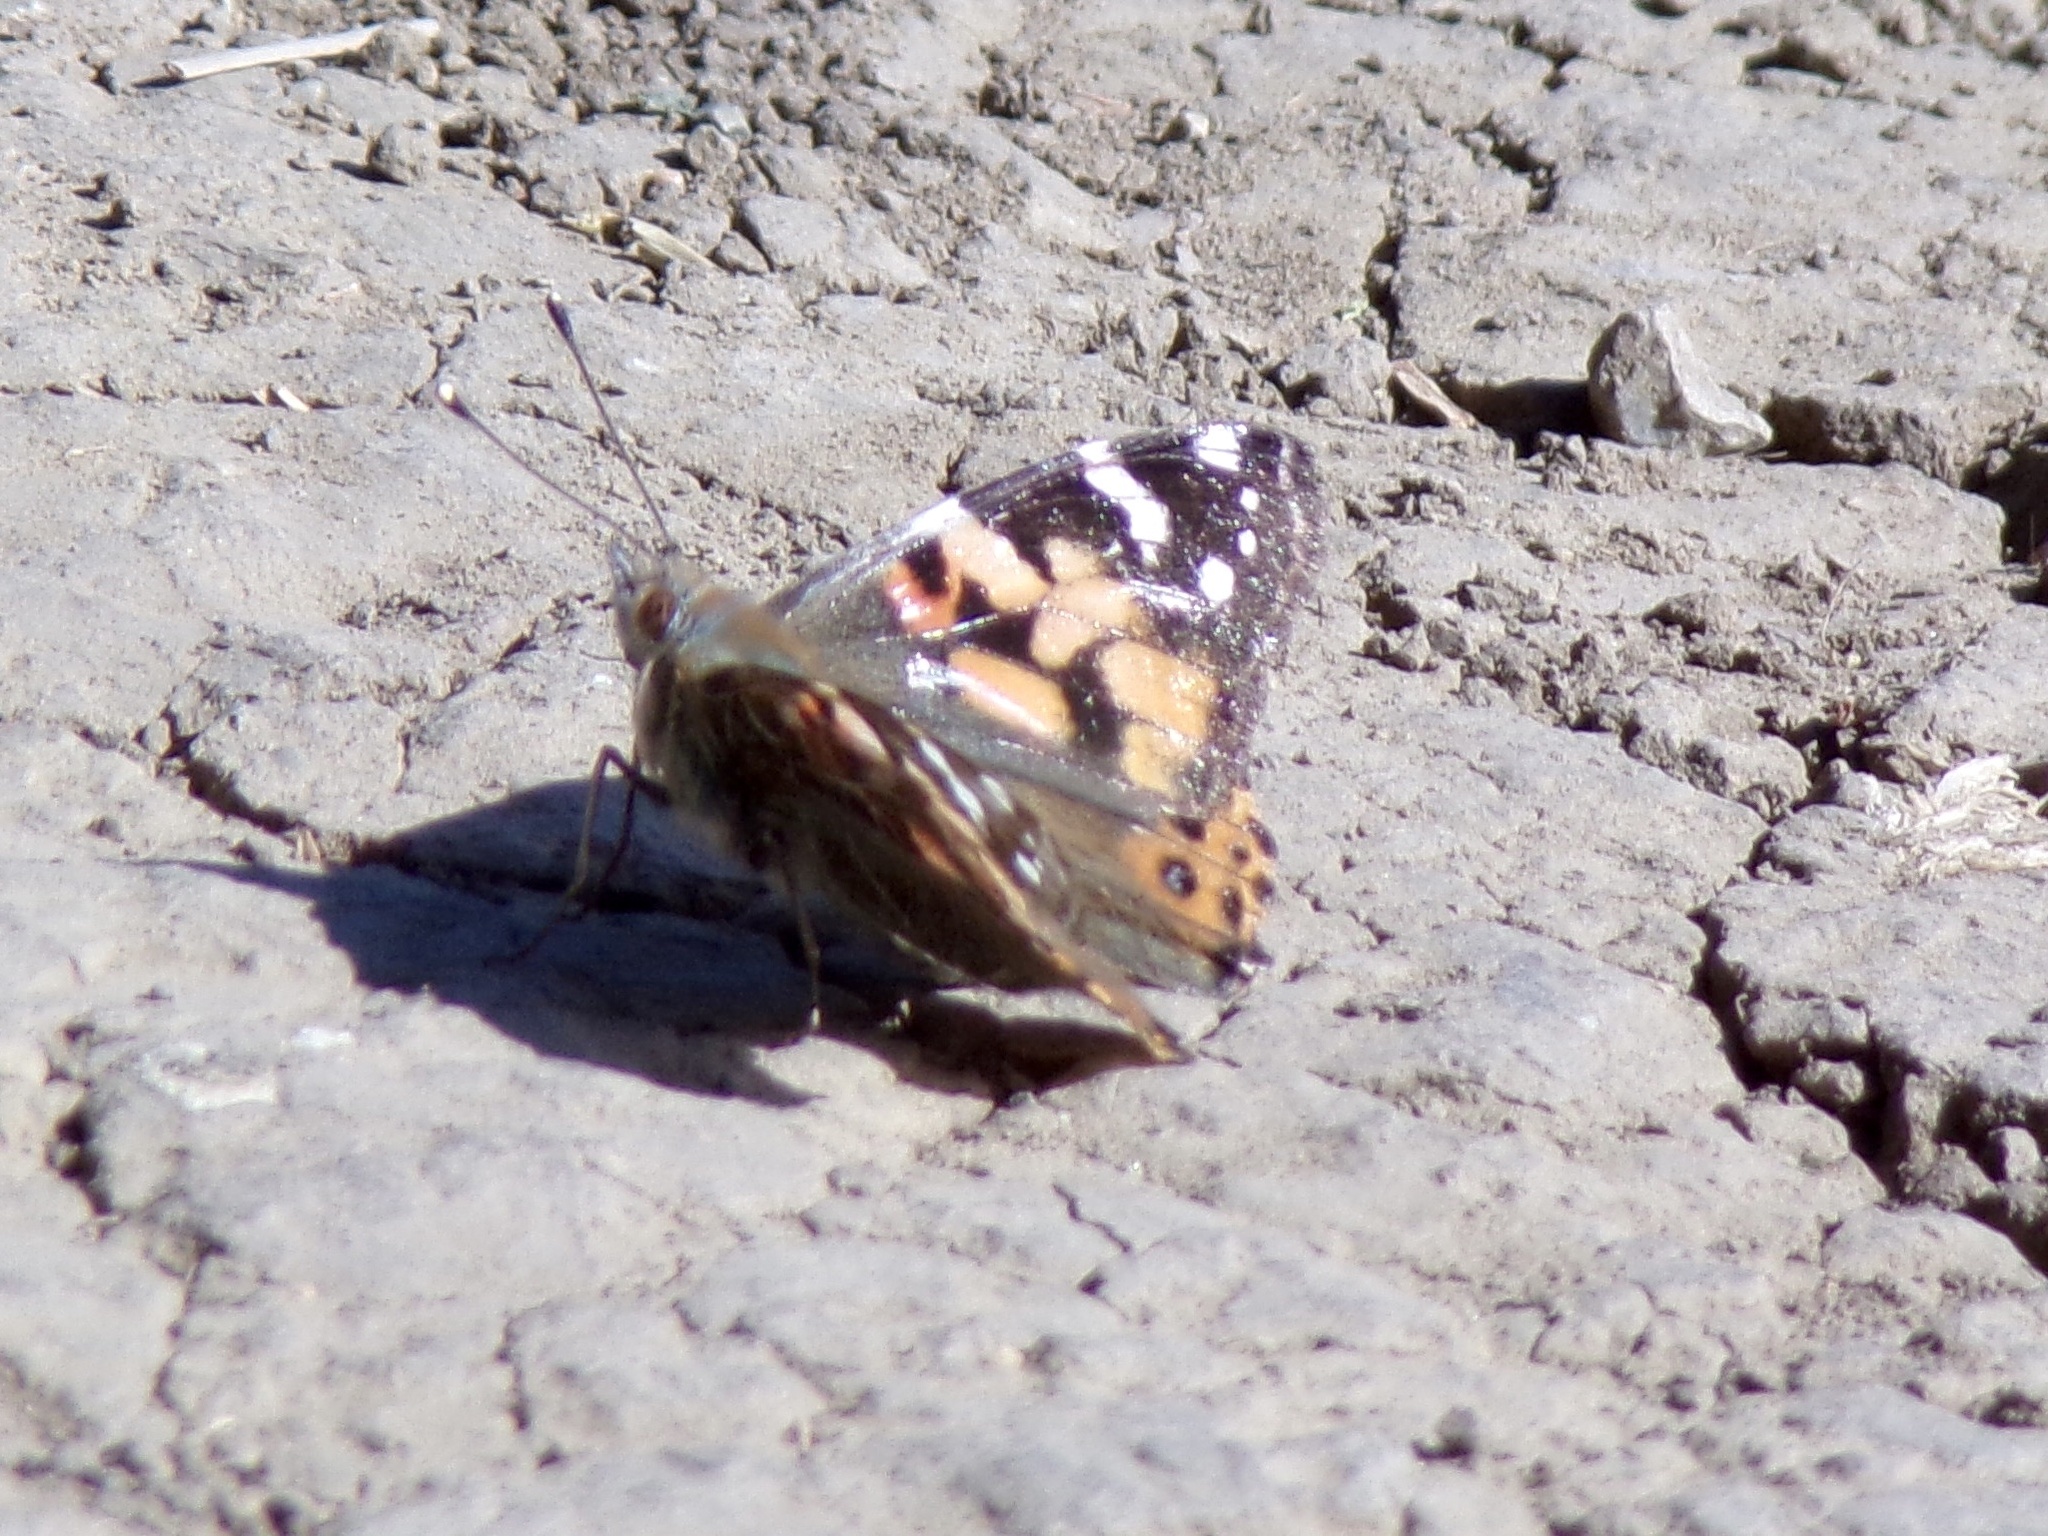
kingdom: Animalia
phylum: Arthropoda
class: Insecta
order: Lepidoptera
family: Nymphalidae
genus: Vanessa
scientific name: Vanessa cardui
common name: Painted lady
